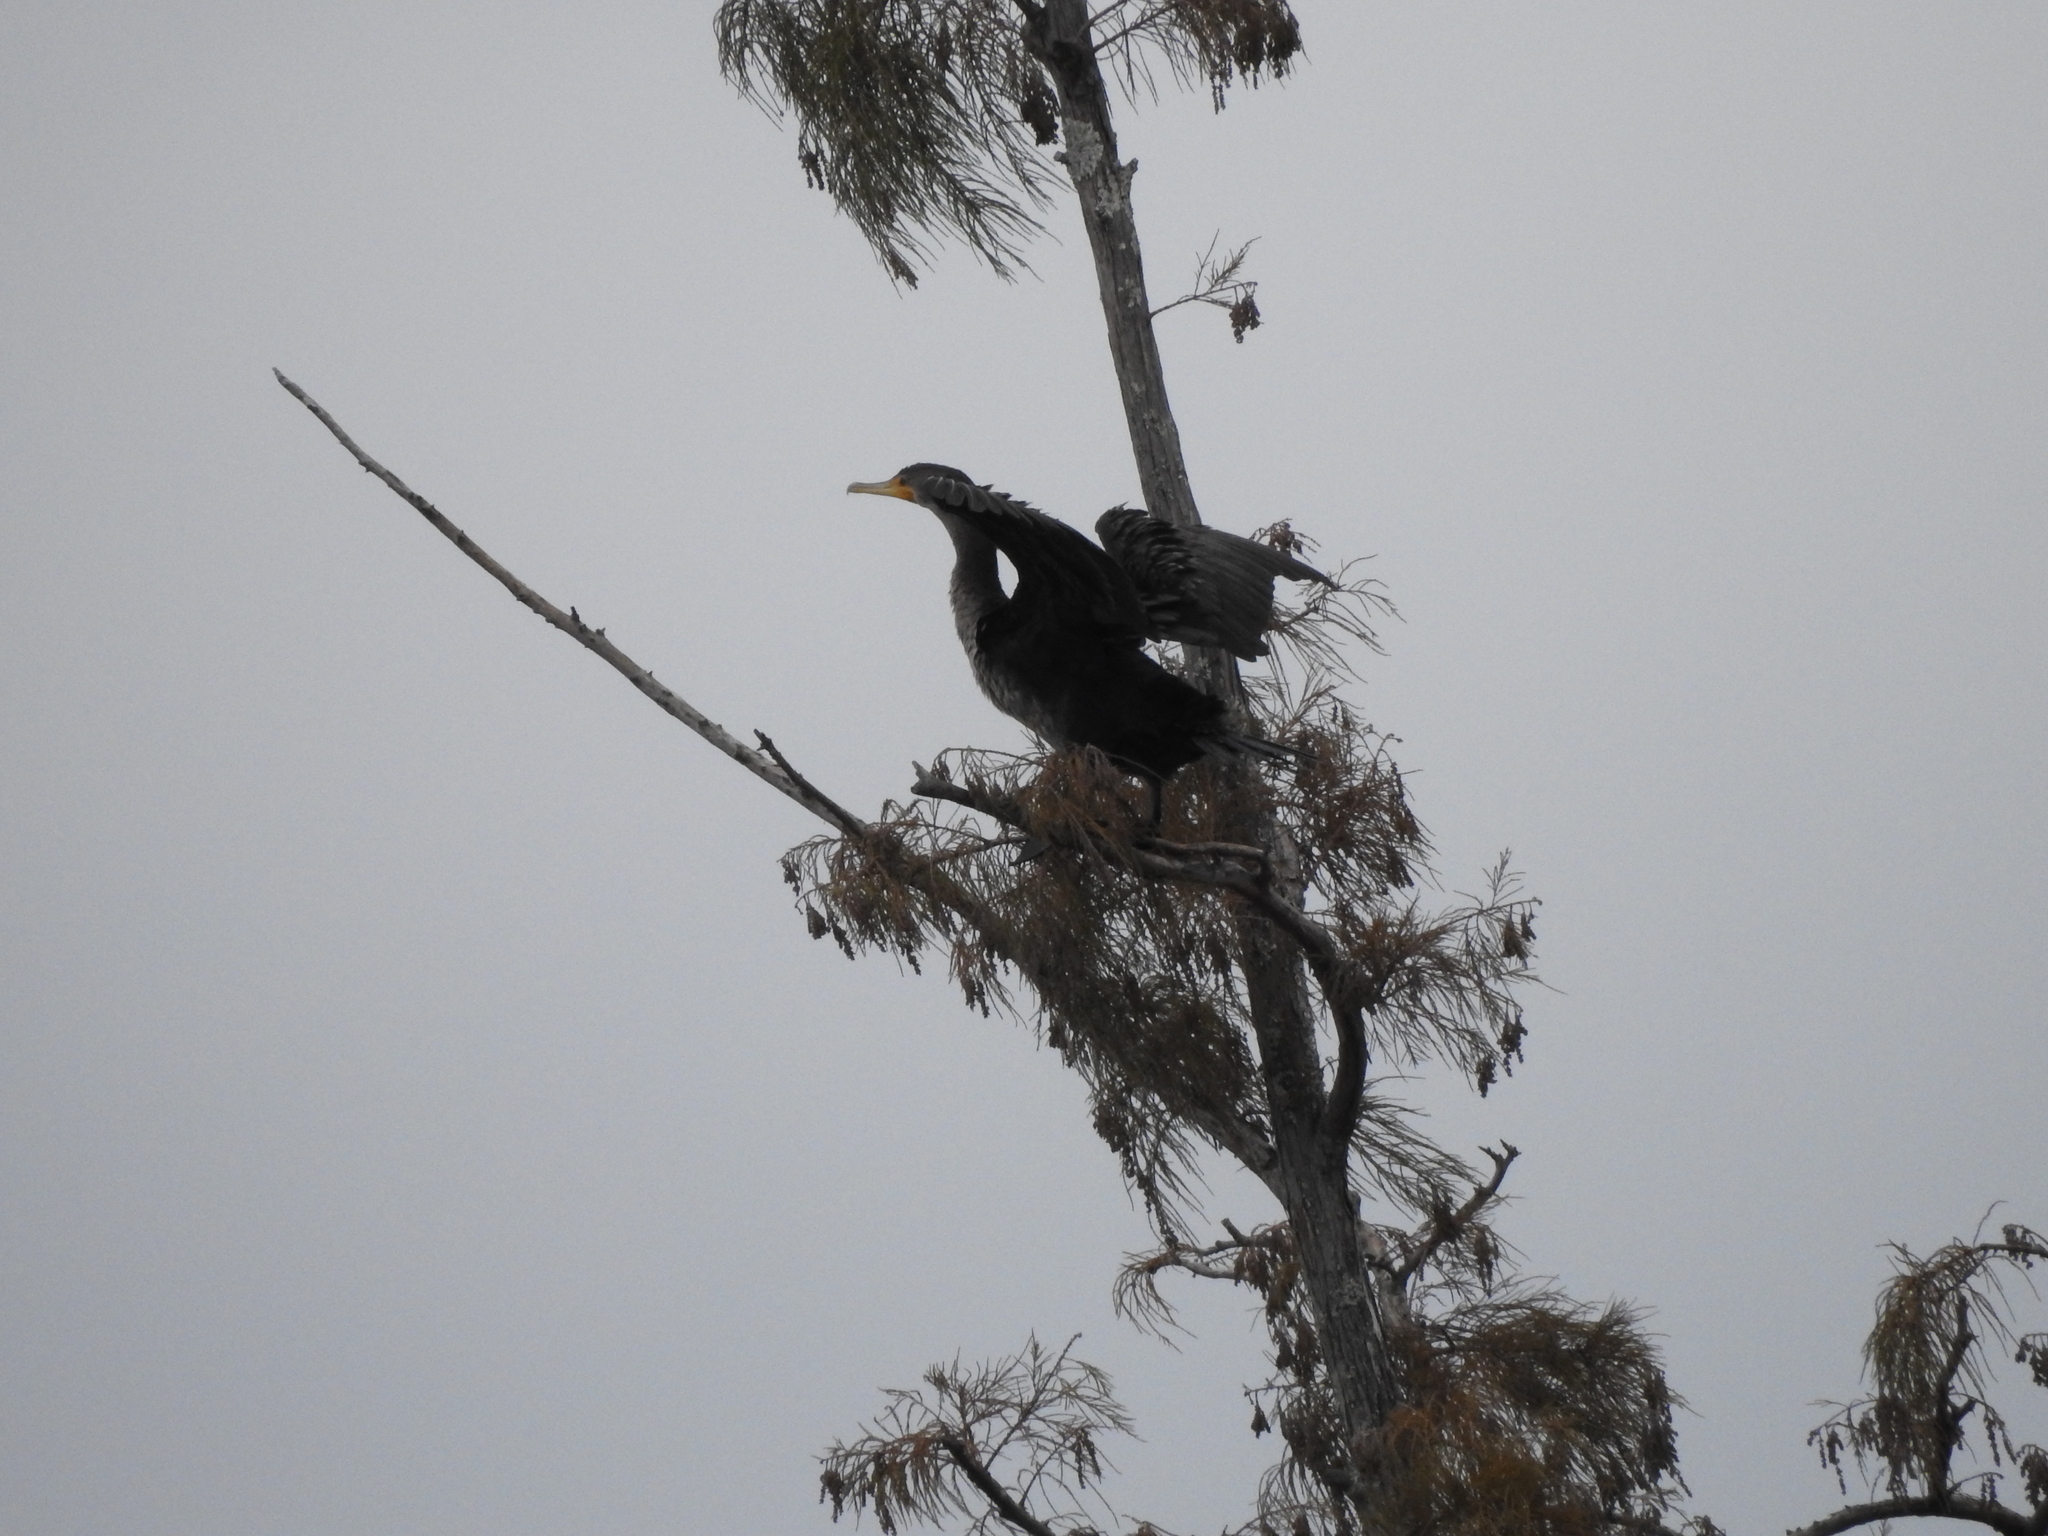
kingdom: Animalia
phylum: Chordata
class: Aves
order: Suliformes
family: Phalacrocoracidae
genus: Phalacrocorax
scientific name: Phalacrocorax auritus
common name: Double-crested cormorant
